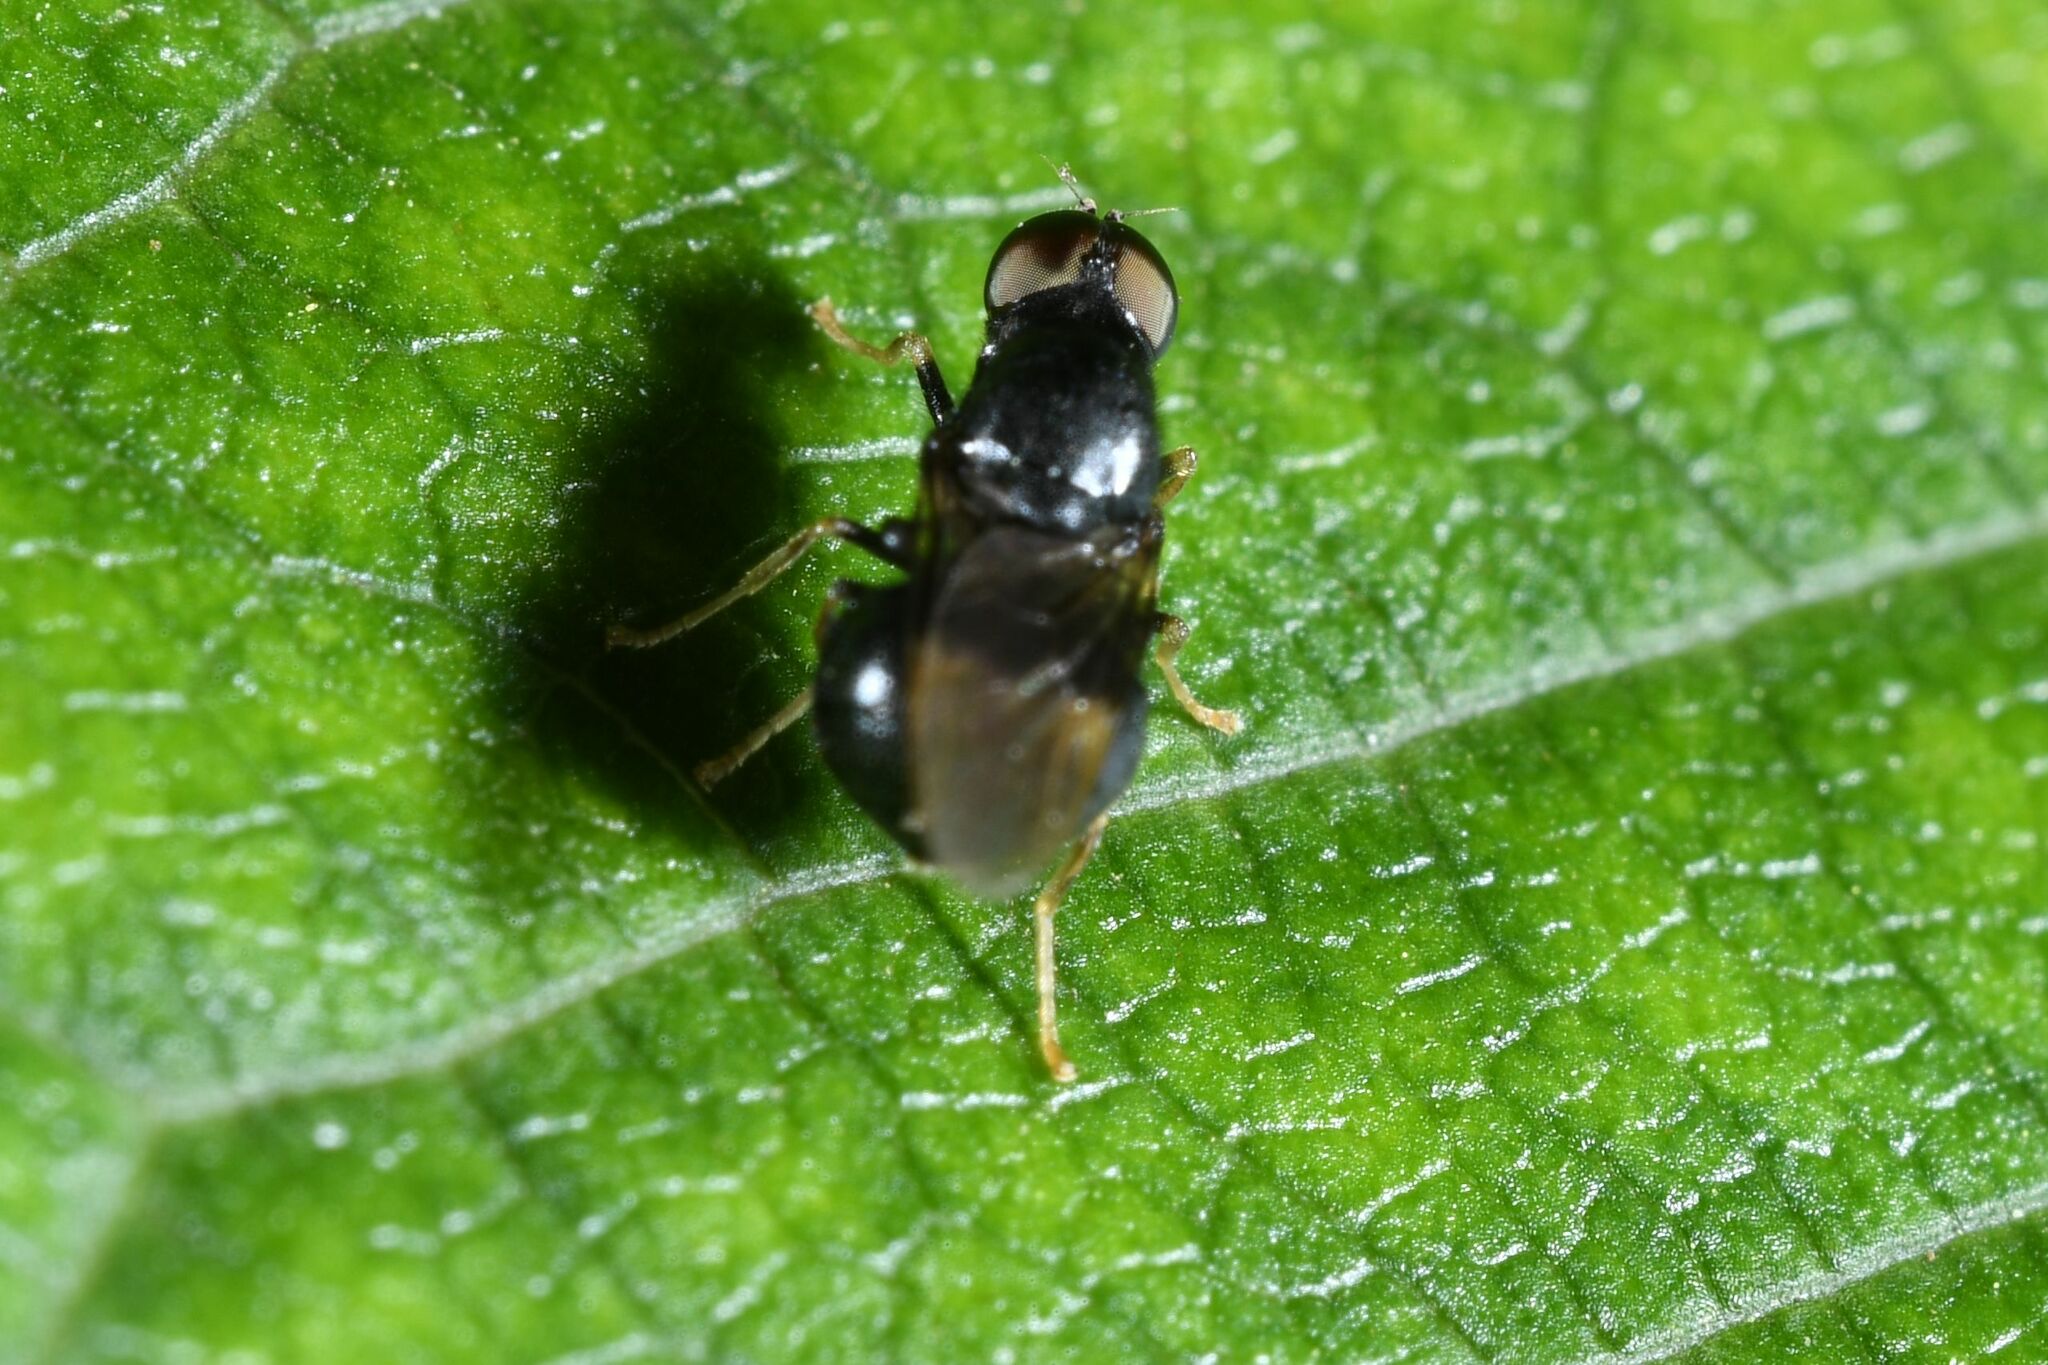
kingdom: Animalia
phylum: Arthropoda
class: Insecta
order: Diptera
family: Stratiomyidae
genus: Pachygaster
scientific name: Pachygaster atra
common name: Dark-winged black
